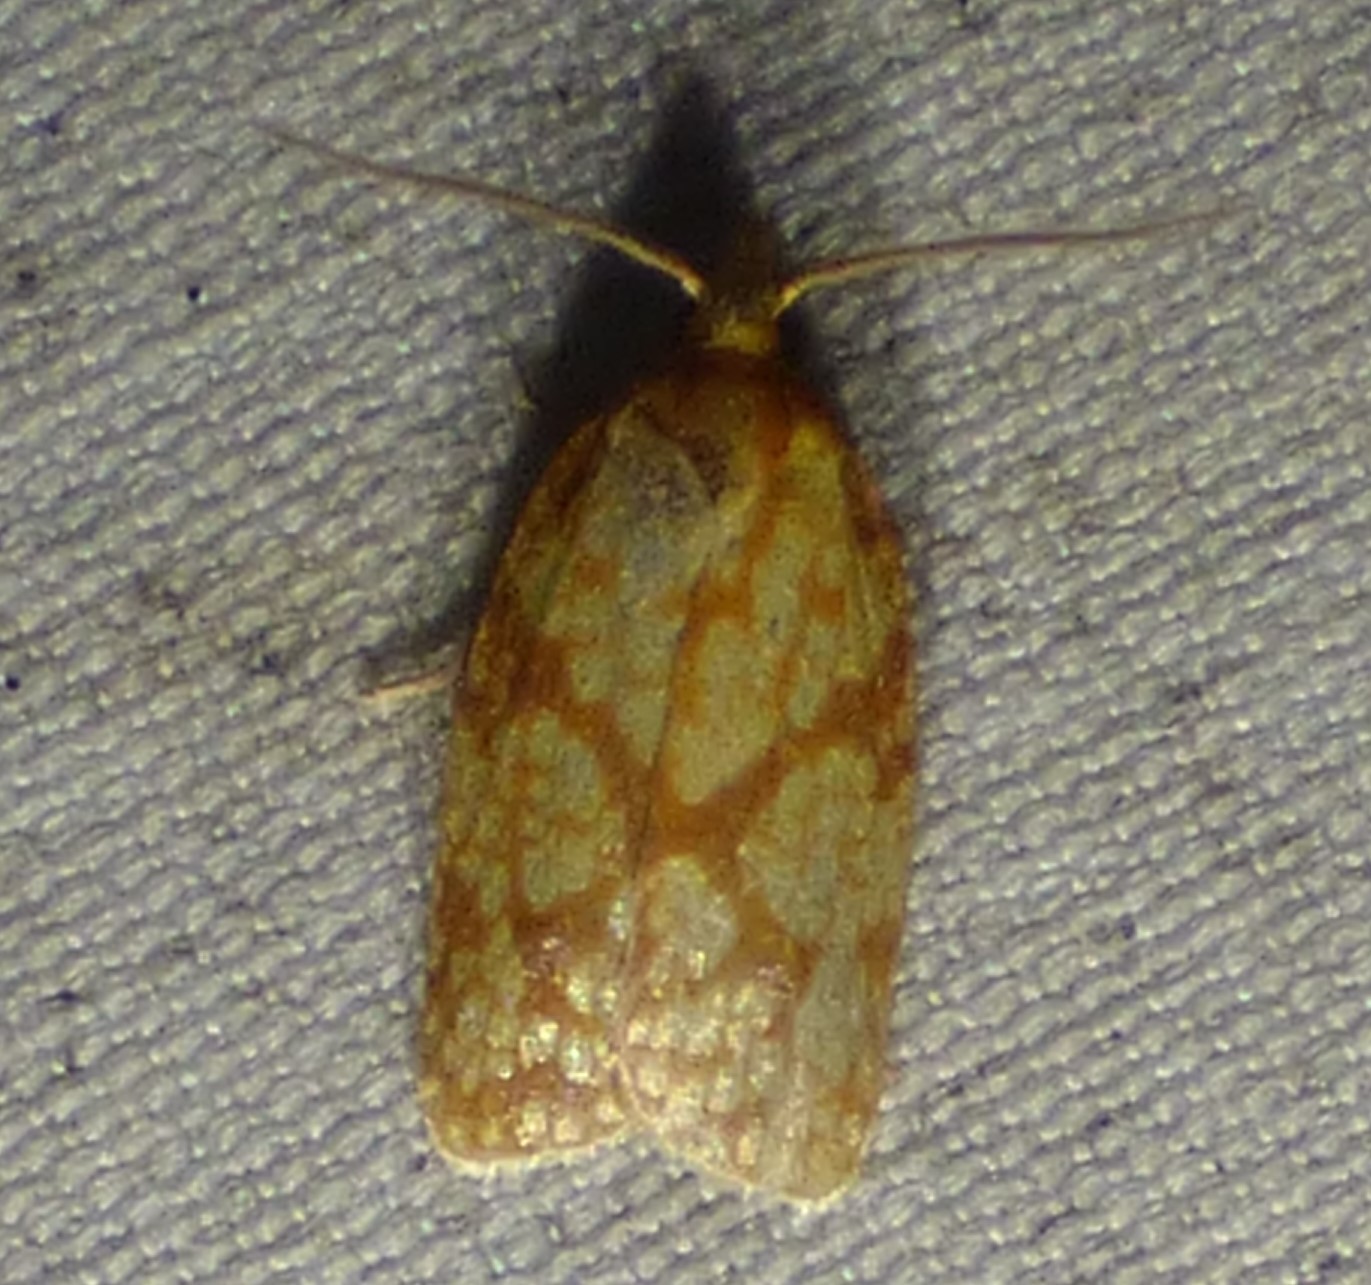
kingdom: Animalia
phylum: Arthropoda
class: Insecta
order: Lepidoptera
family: Tortricidae
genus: Sparganothis
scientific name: Sparganothis sulfureana
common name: Sparganothis fruitworm moth
